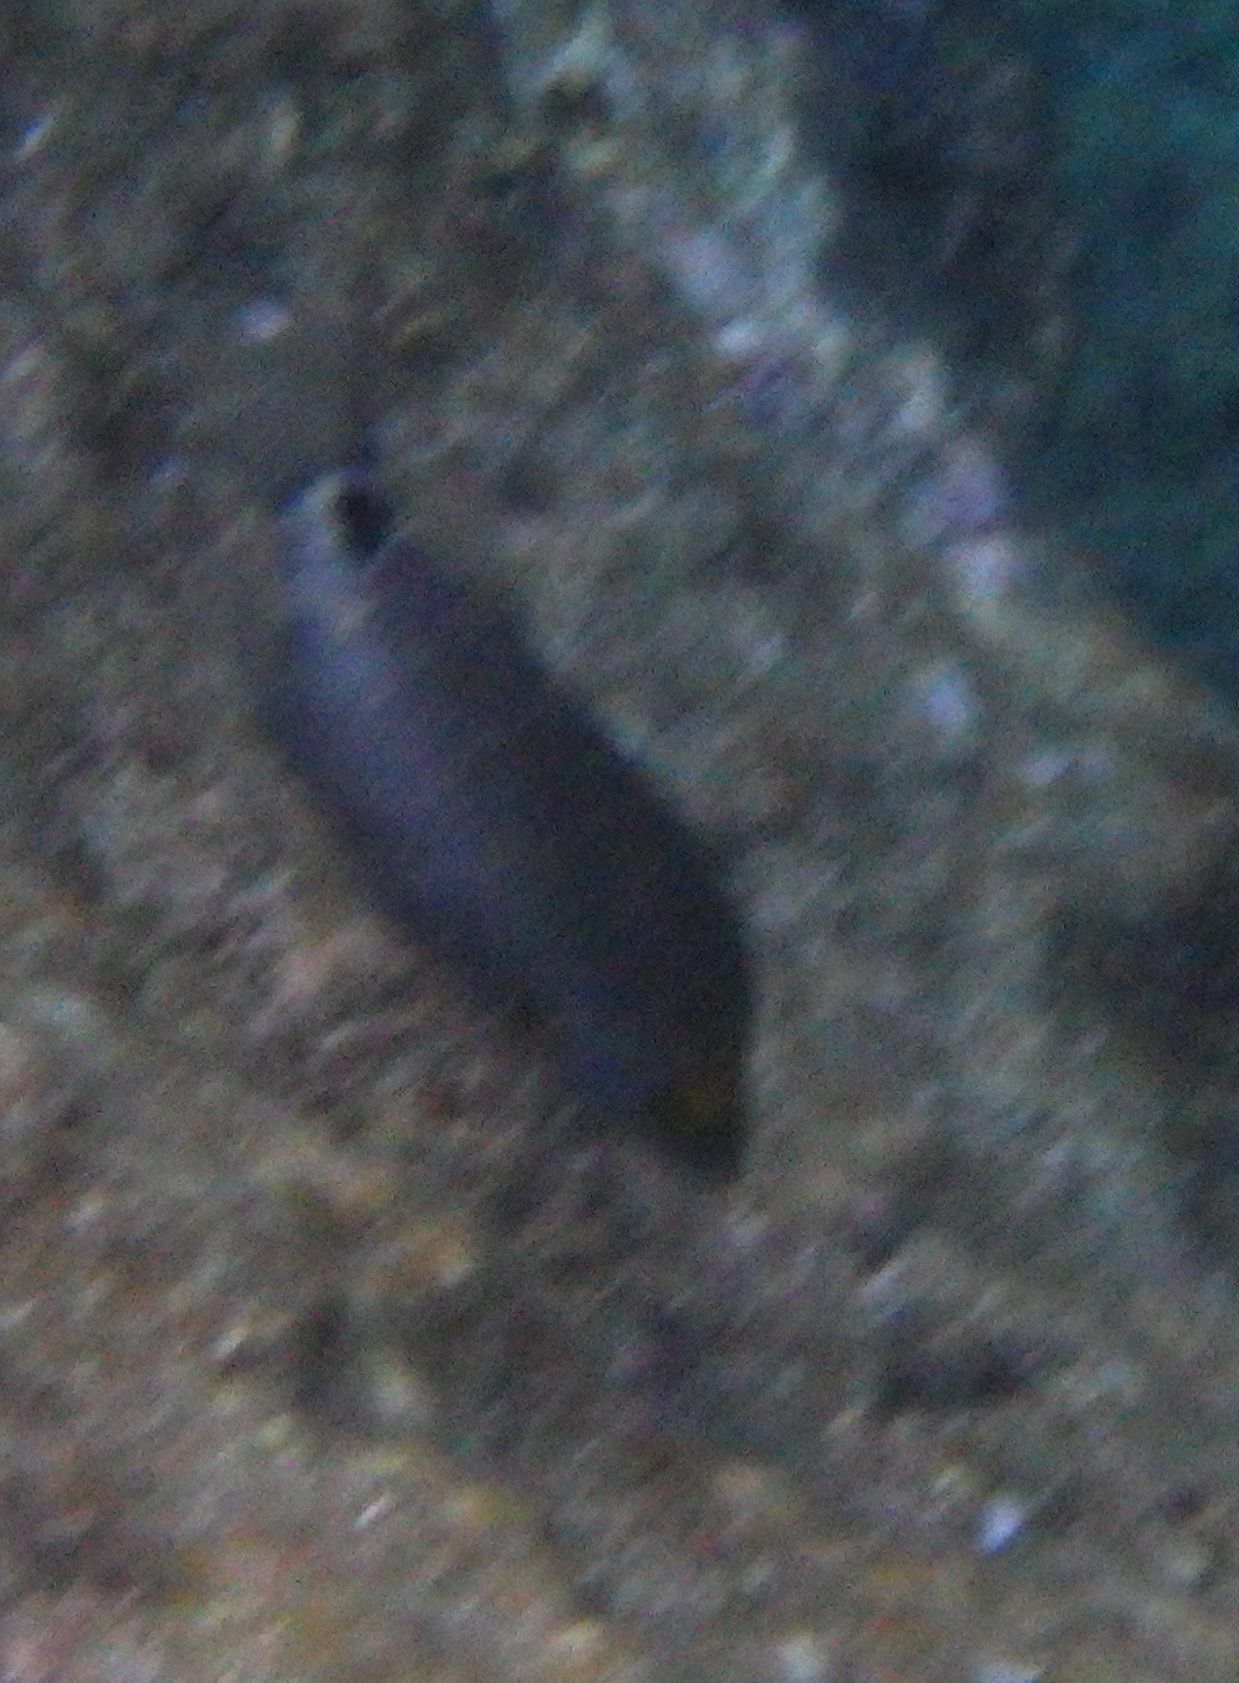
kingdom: Animalia
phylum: Chordata
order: Perciformes
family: Labridae
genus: Symphodus
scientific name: Symphodus mediterraneus
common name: Axillary wrasse
